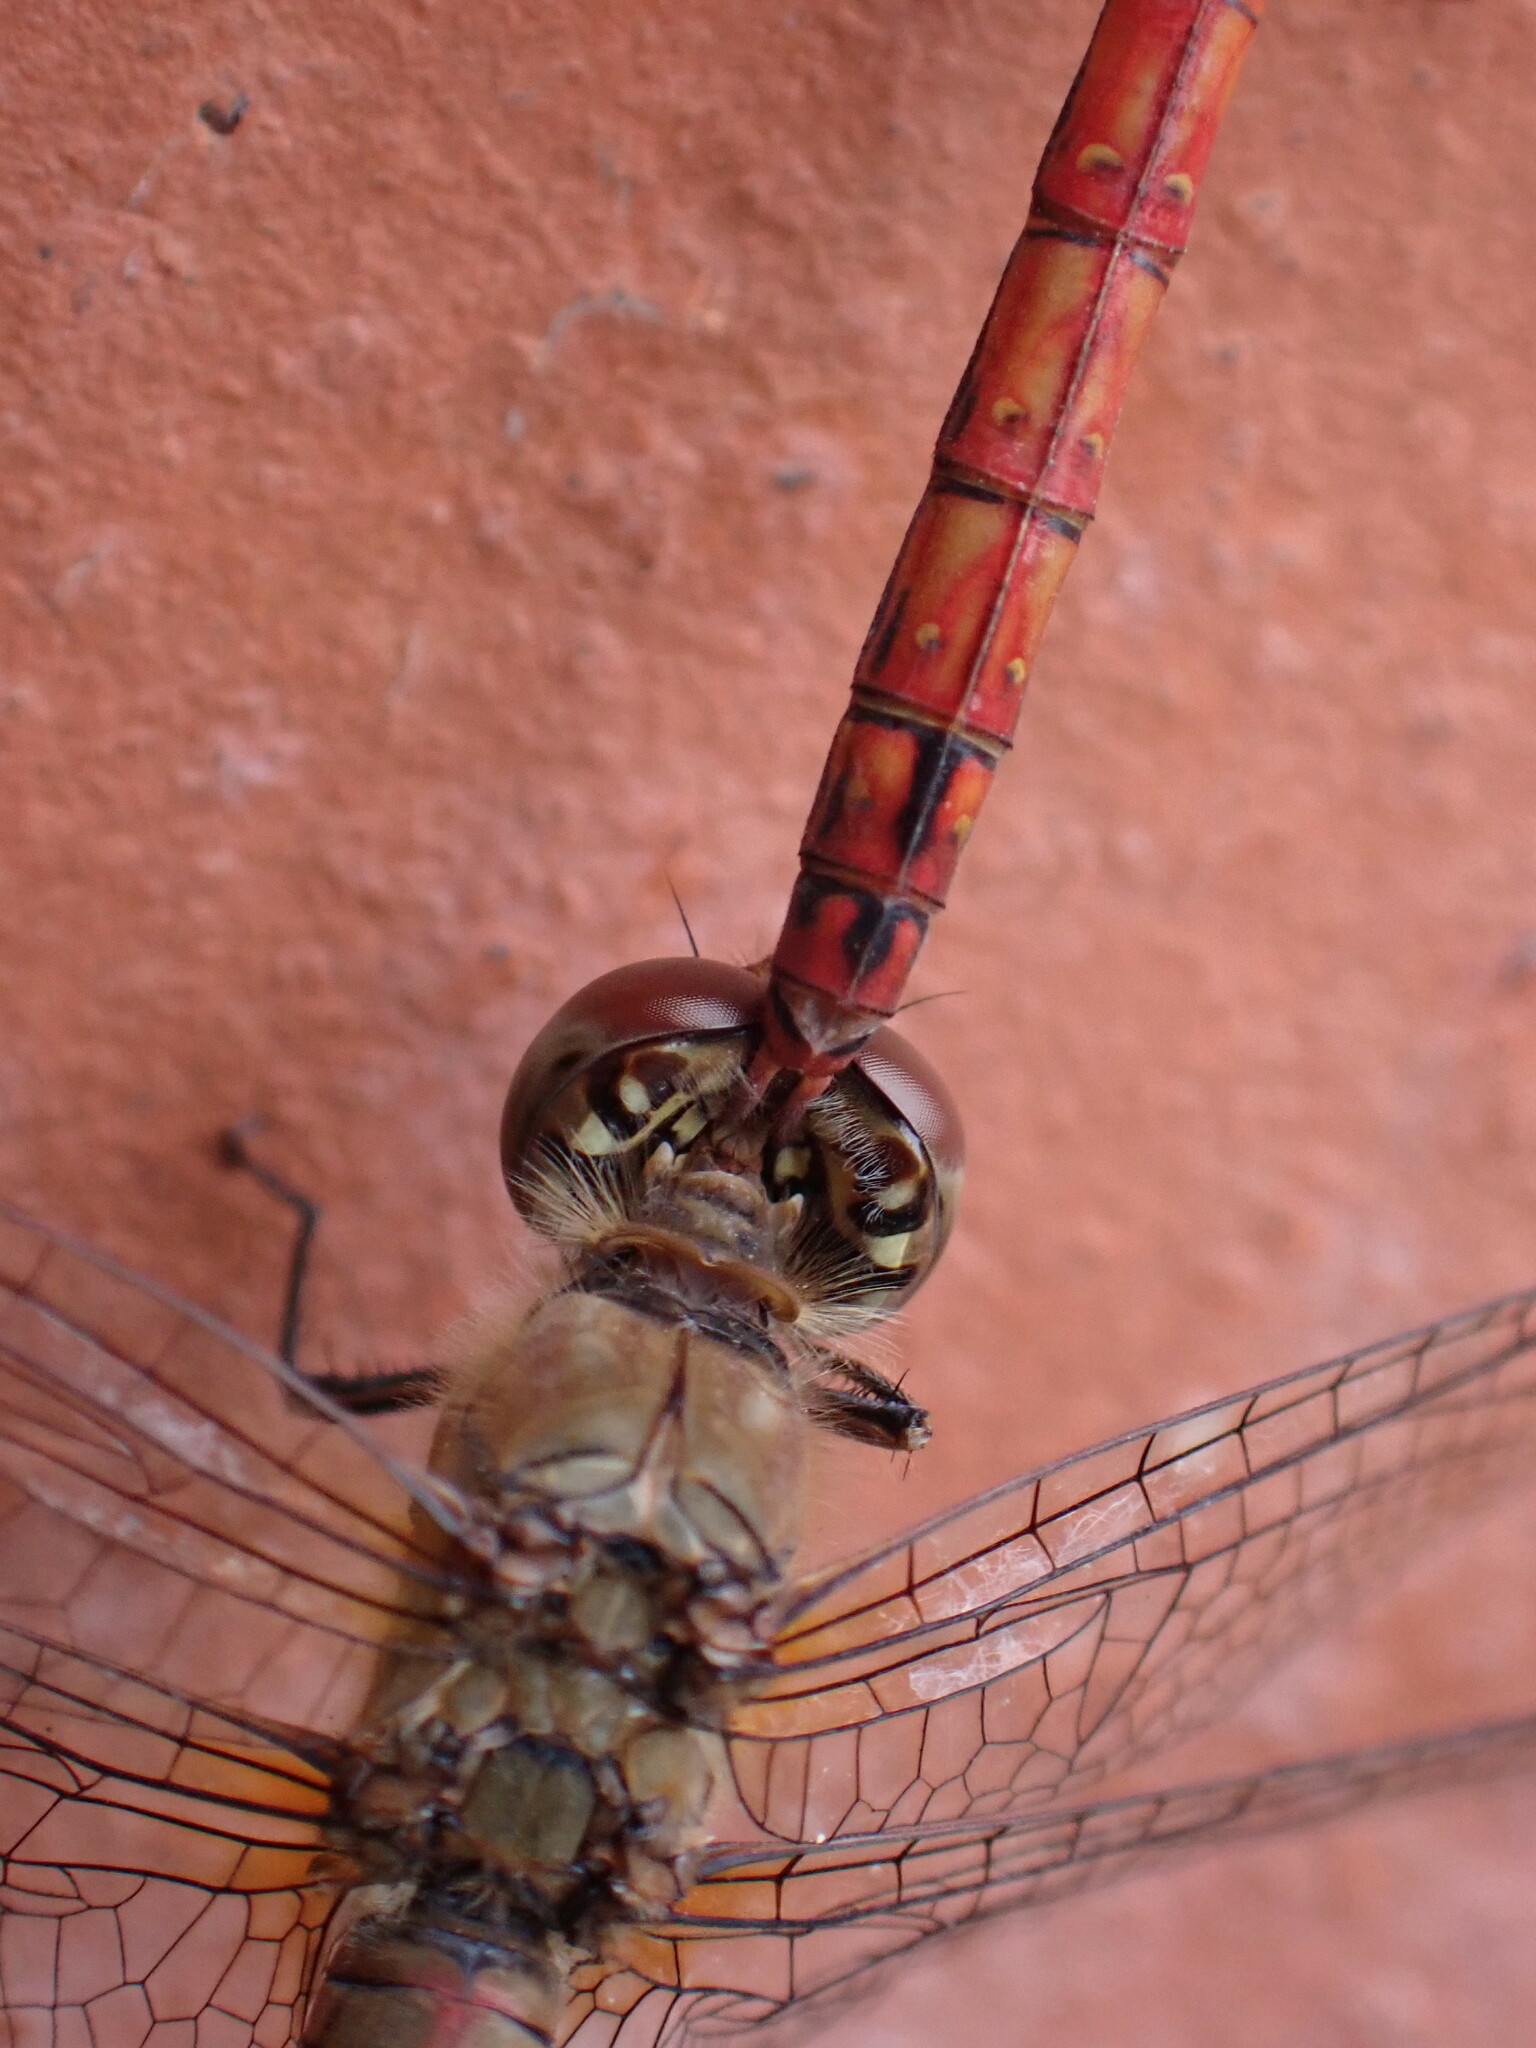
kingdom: Animalia
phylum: Arthropoda
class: Insecta
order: Odonata
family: Libellulidae
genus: Sympetrum
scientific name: Sympetrum striolatum
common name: Common darter
